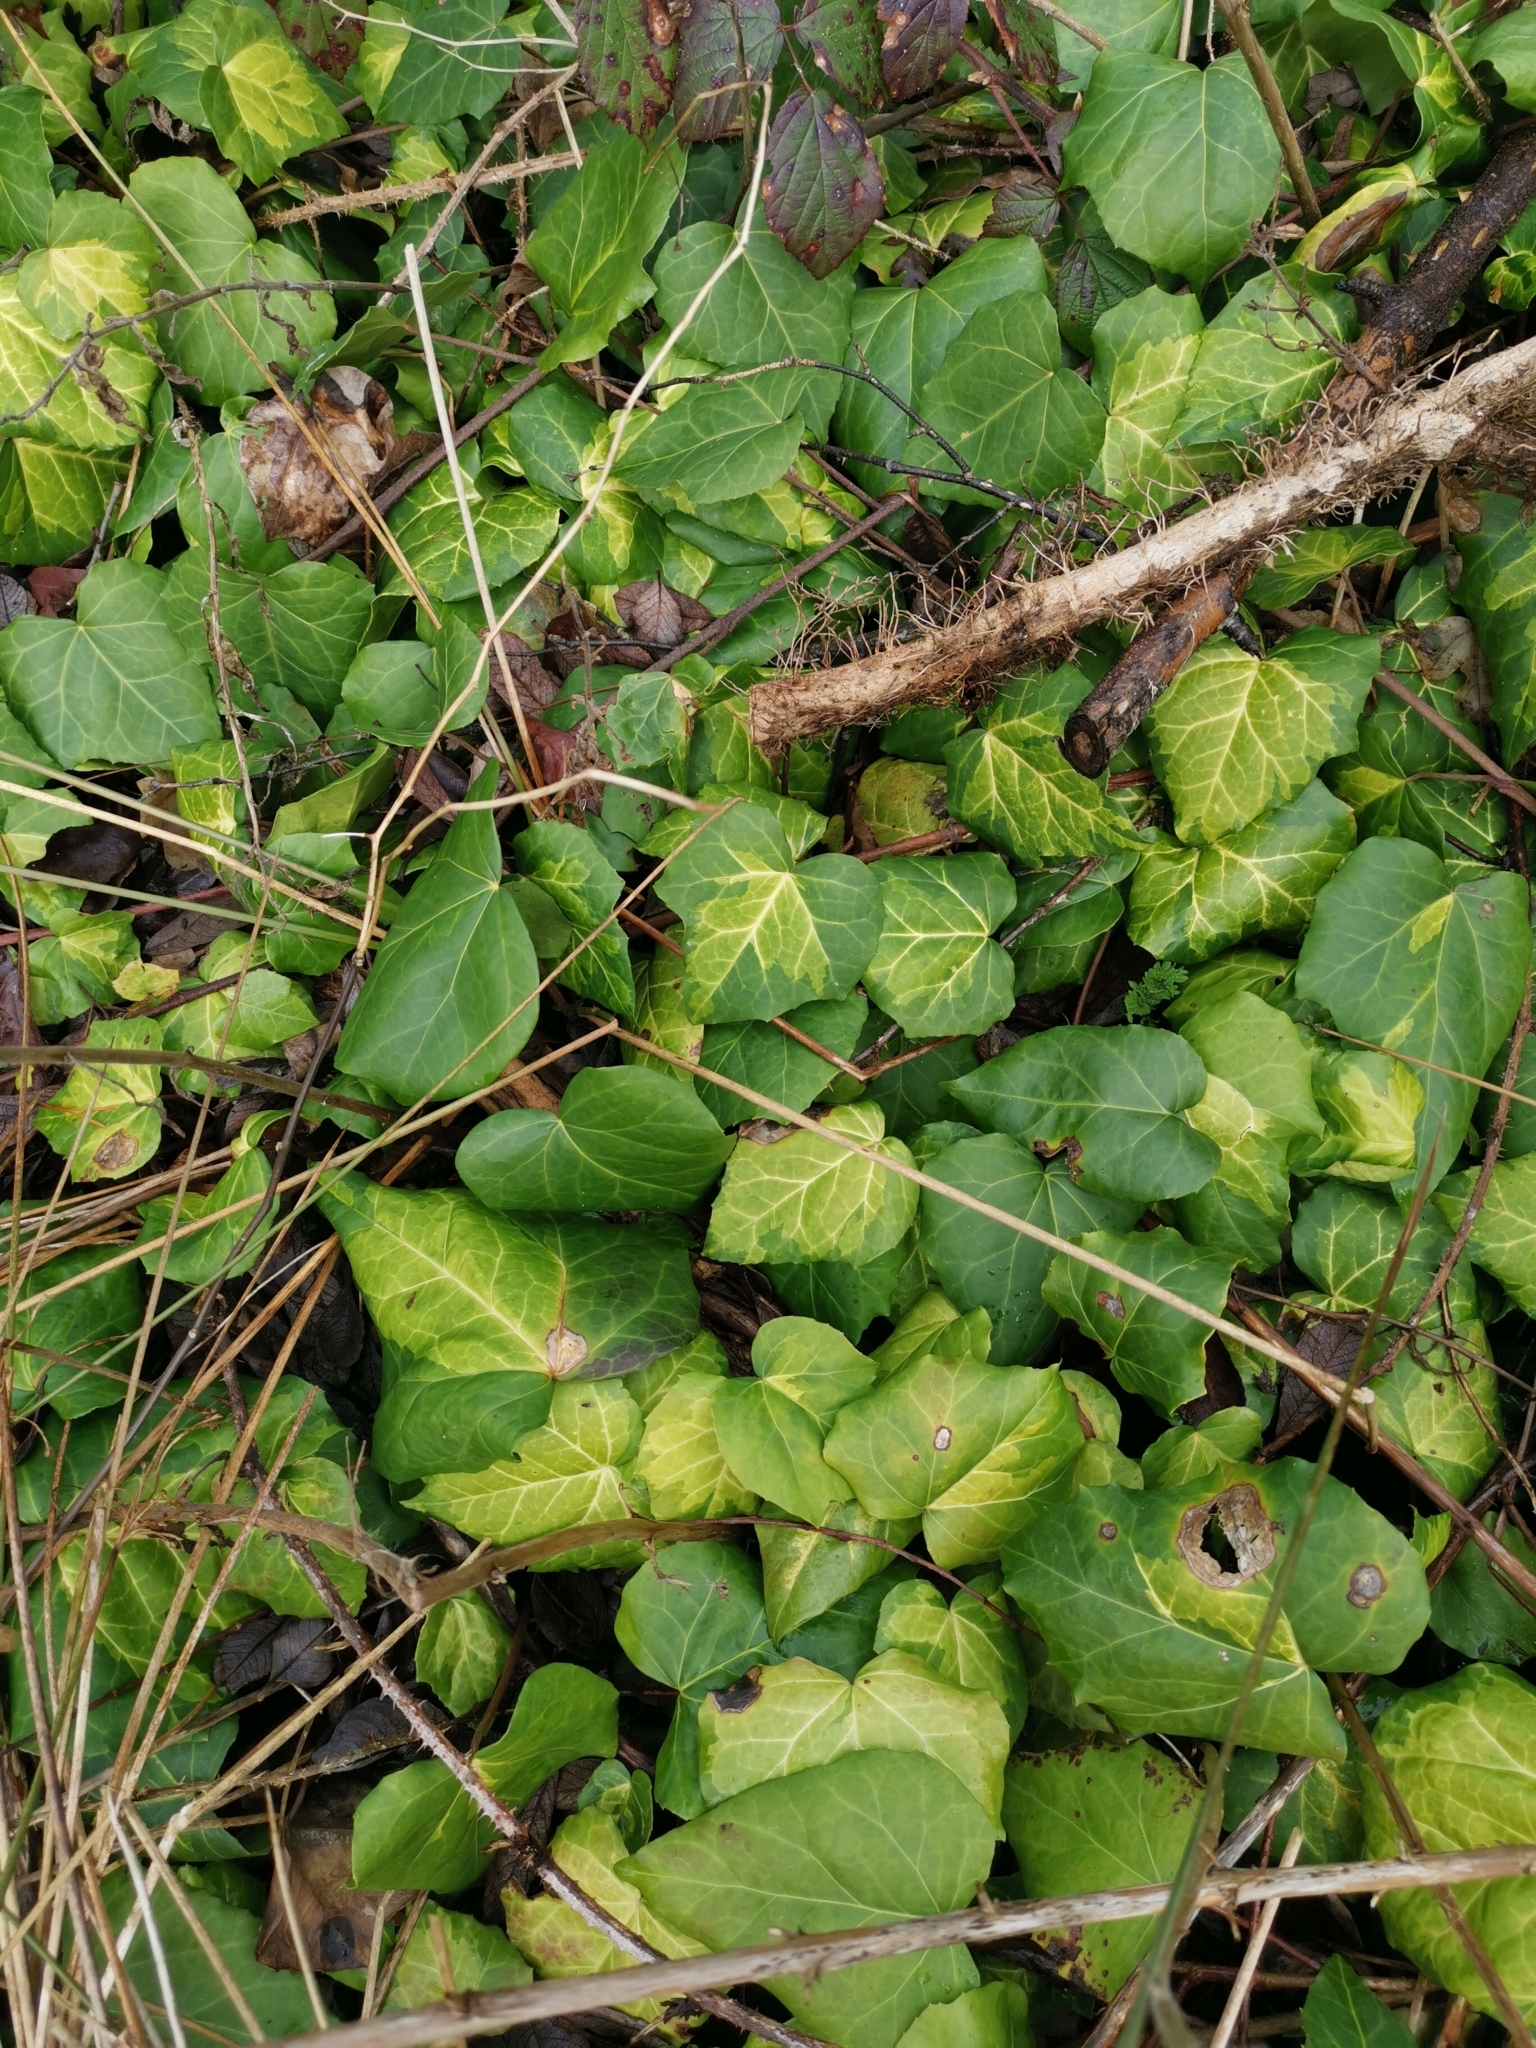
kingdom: Plantae
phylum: Tracheophyta
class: Magnoliopsida
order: Apiales
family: Araliaceae
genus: Hedera
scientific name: Hedera colchica
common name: Persian ivy
